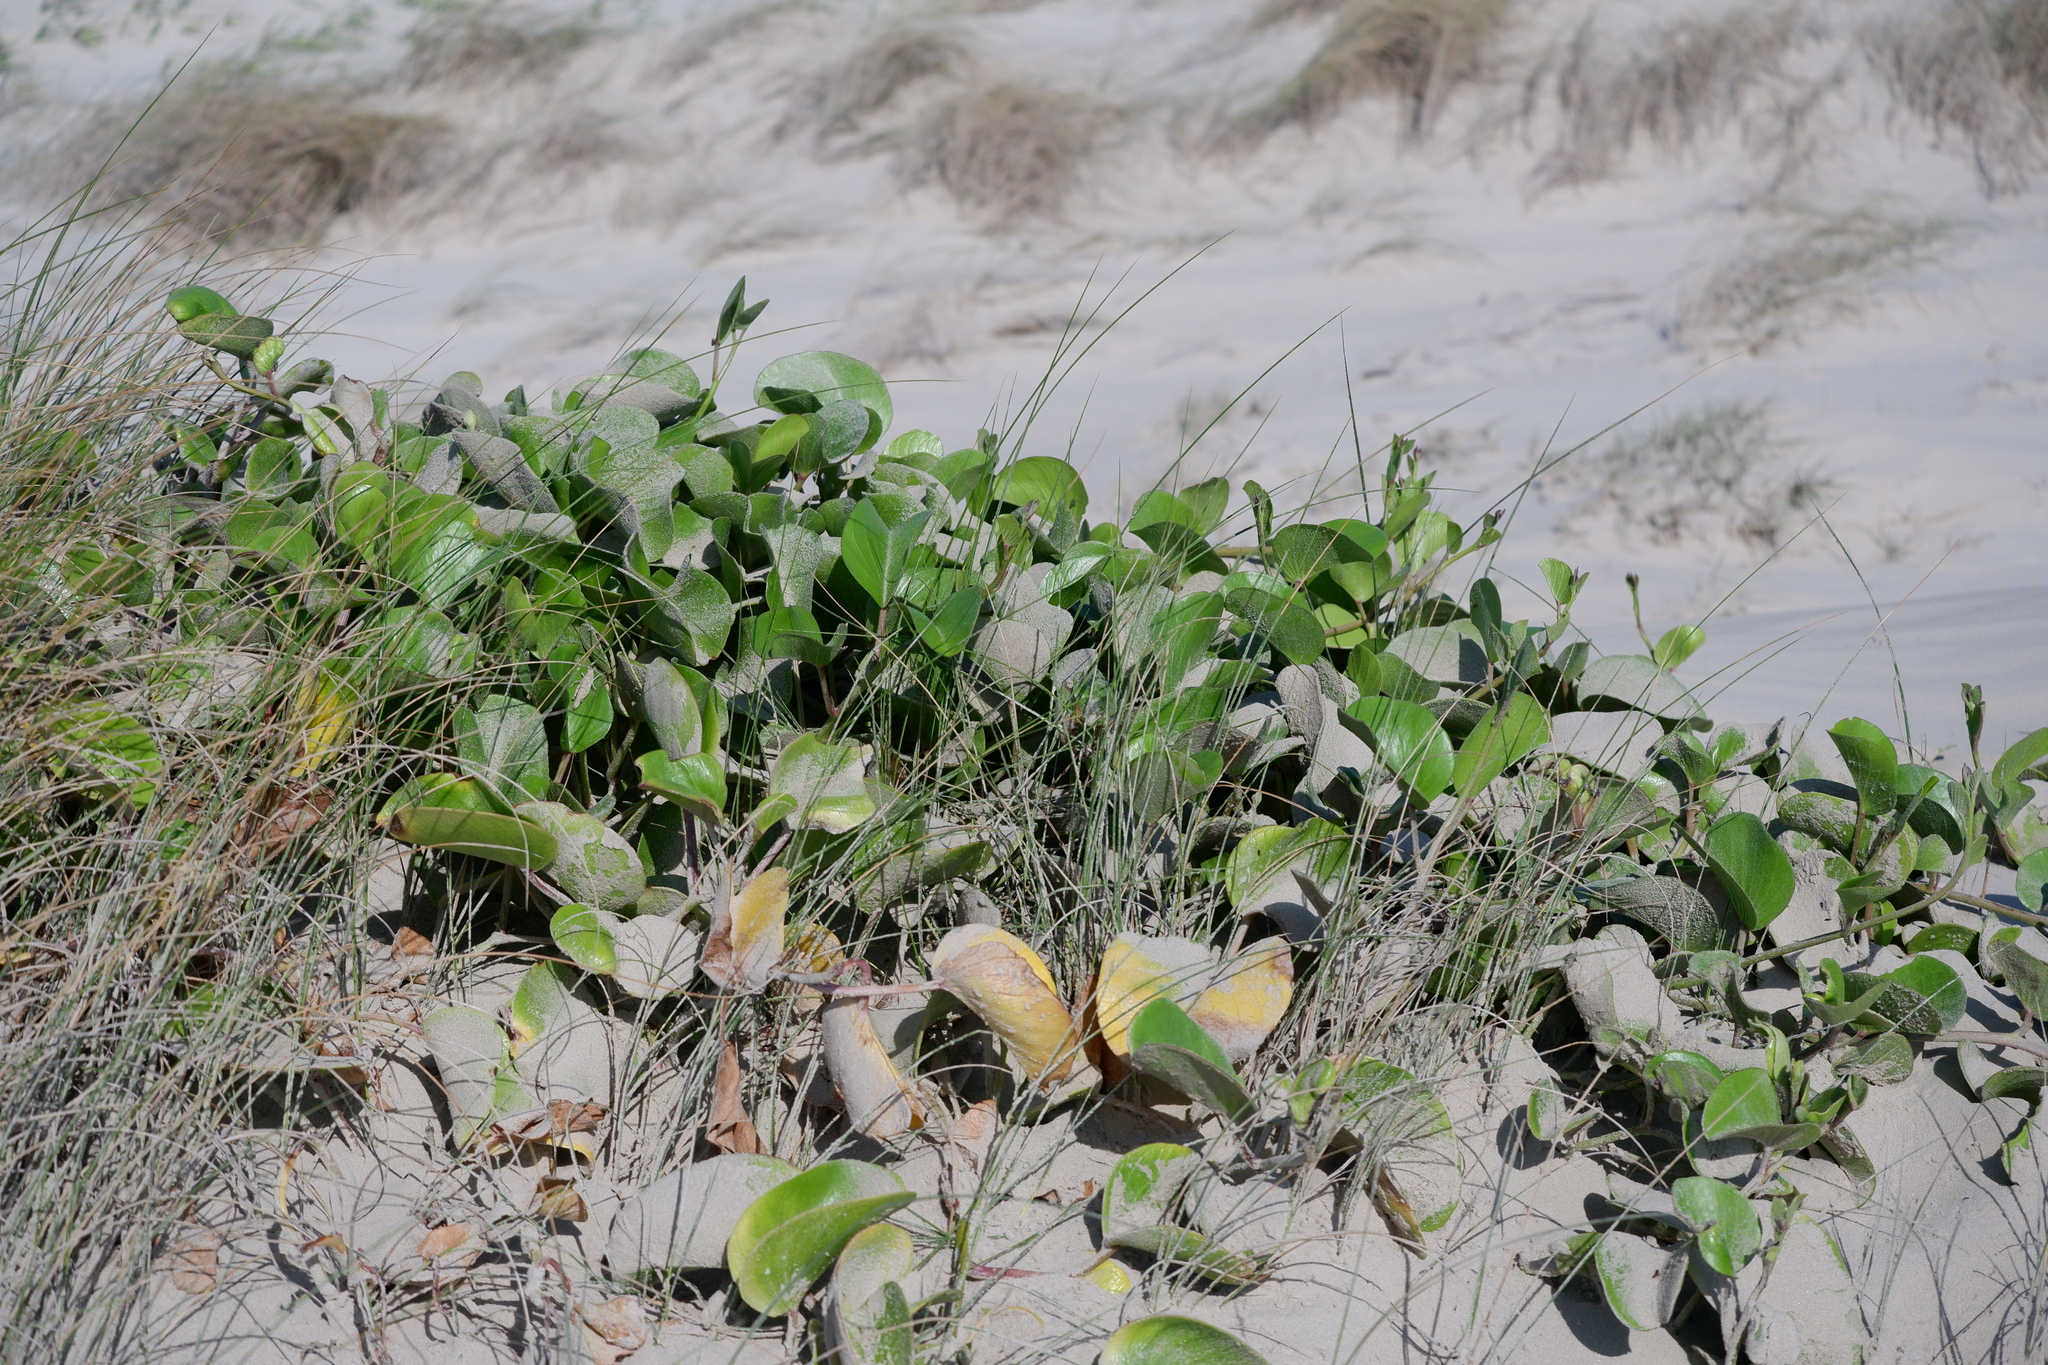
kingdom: Plantae
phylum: Tracheophyta
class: Magnoliopsida
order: Solanales
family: Convolvulaceae
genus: Ipomoea
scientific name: Ipomoea pes-caprae
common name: Beach morning glory
